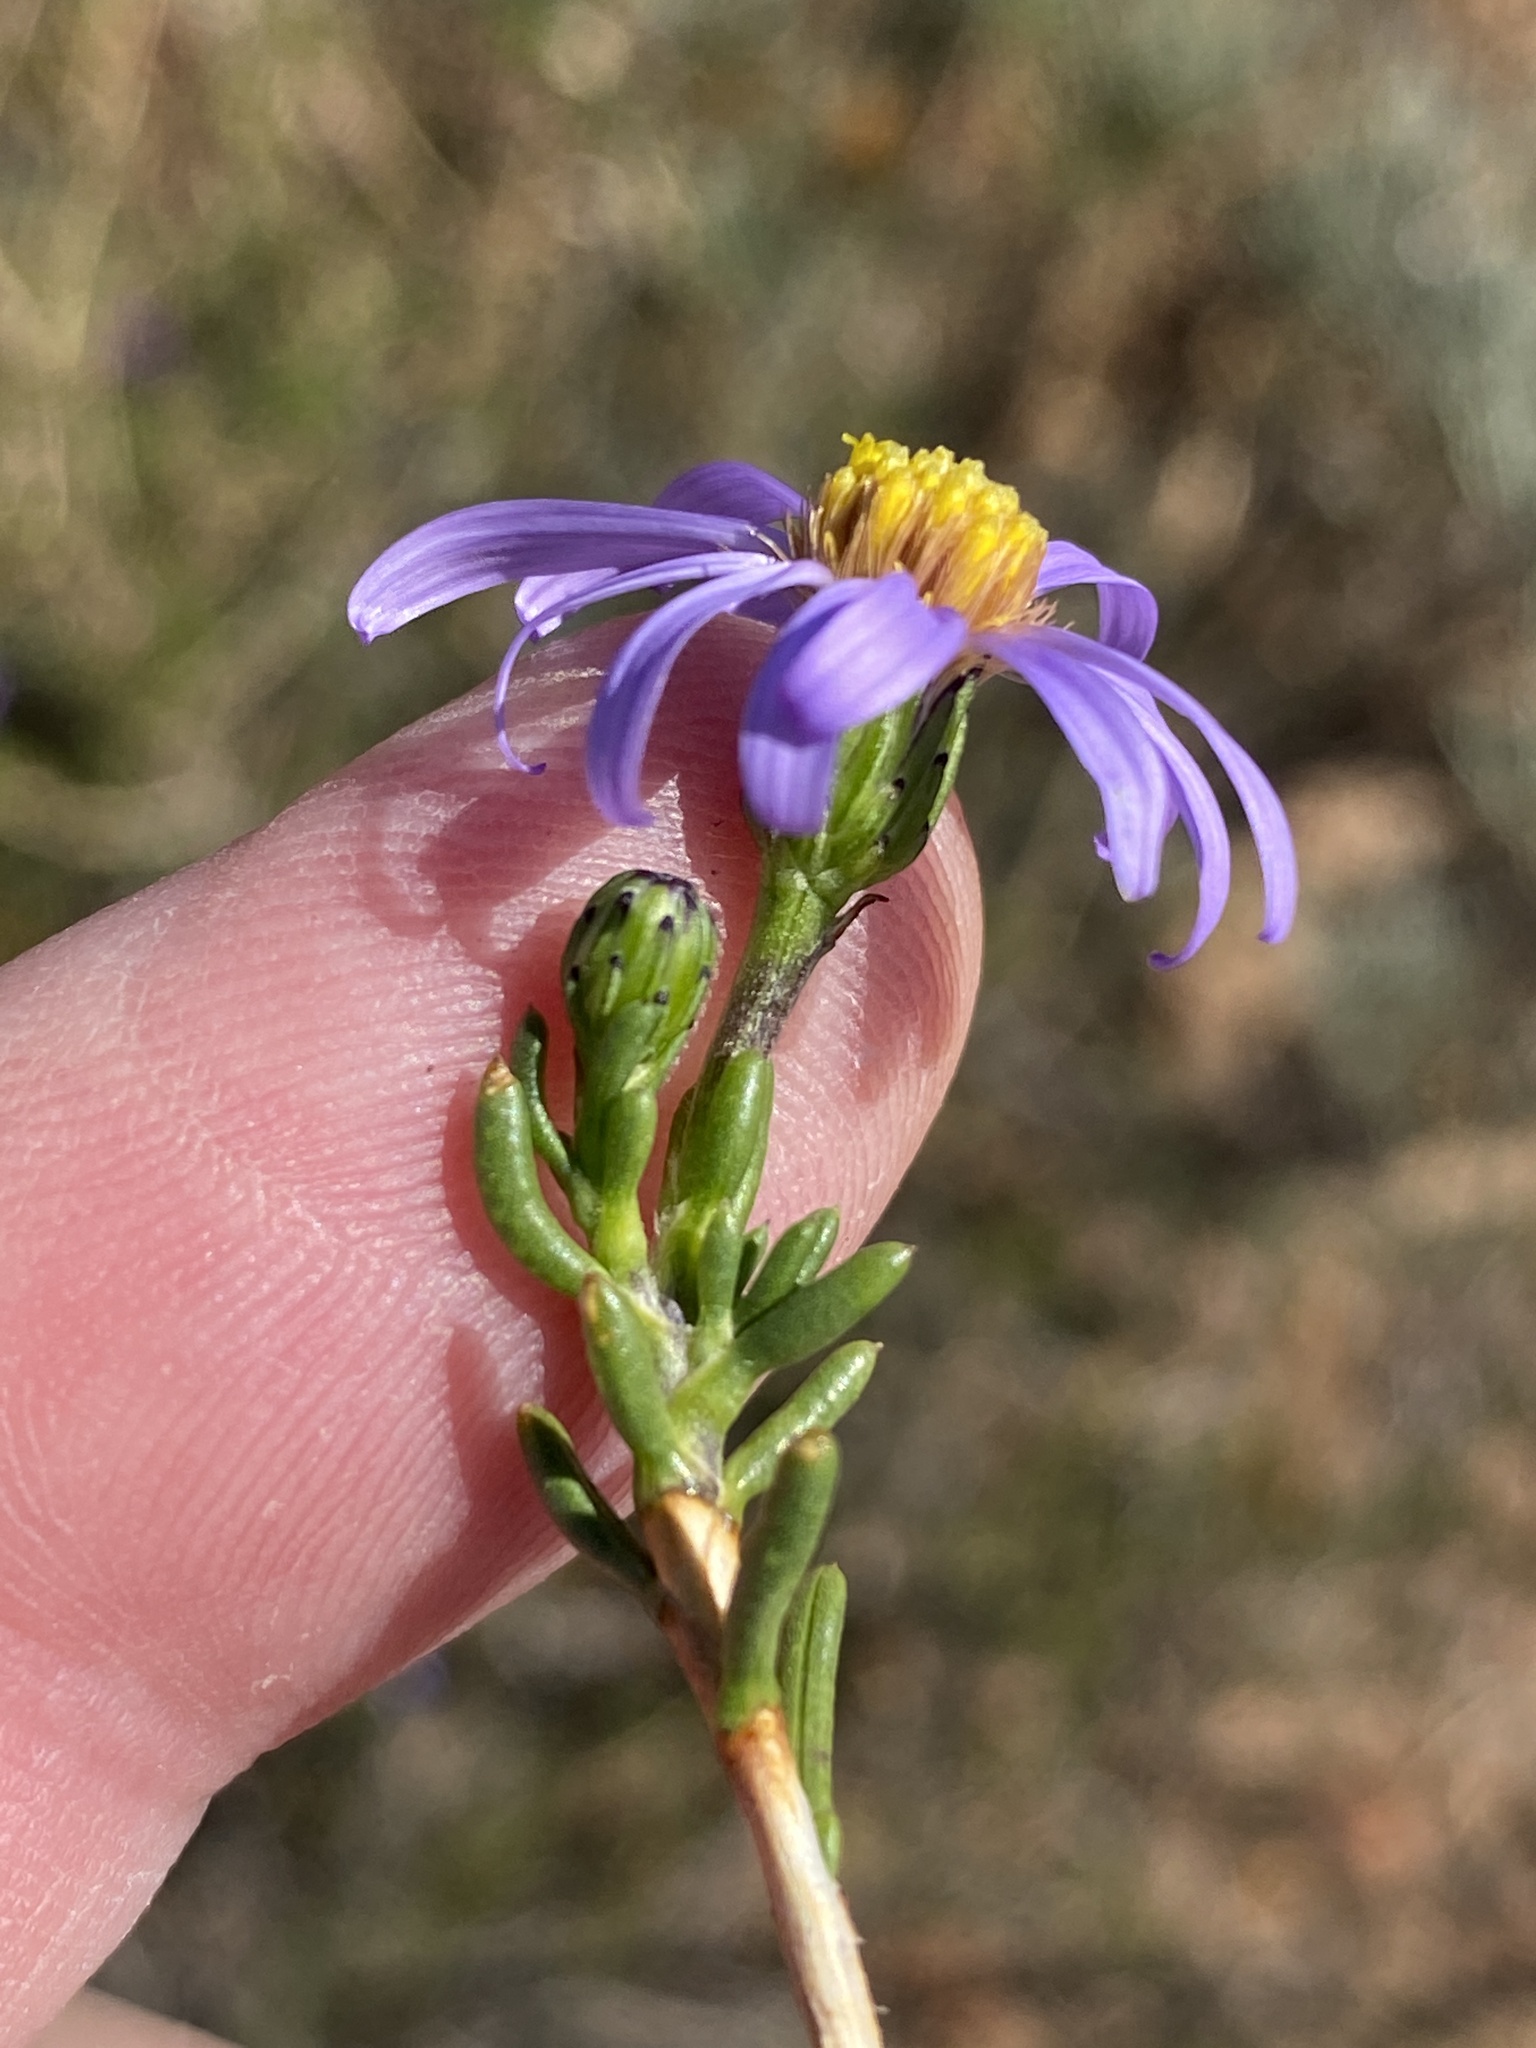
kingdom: Plantae
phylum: Tracheophyta
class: Magnoliopsida
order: Asterales
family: Asteraceae
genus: Felicia
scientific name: Felicia filifolia
